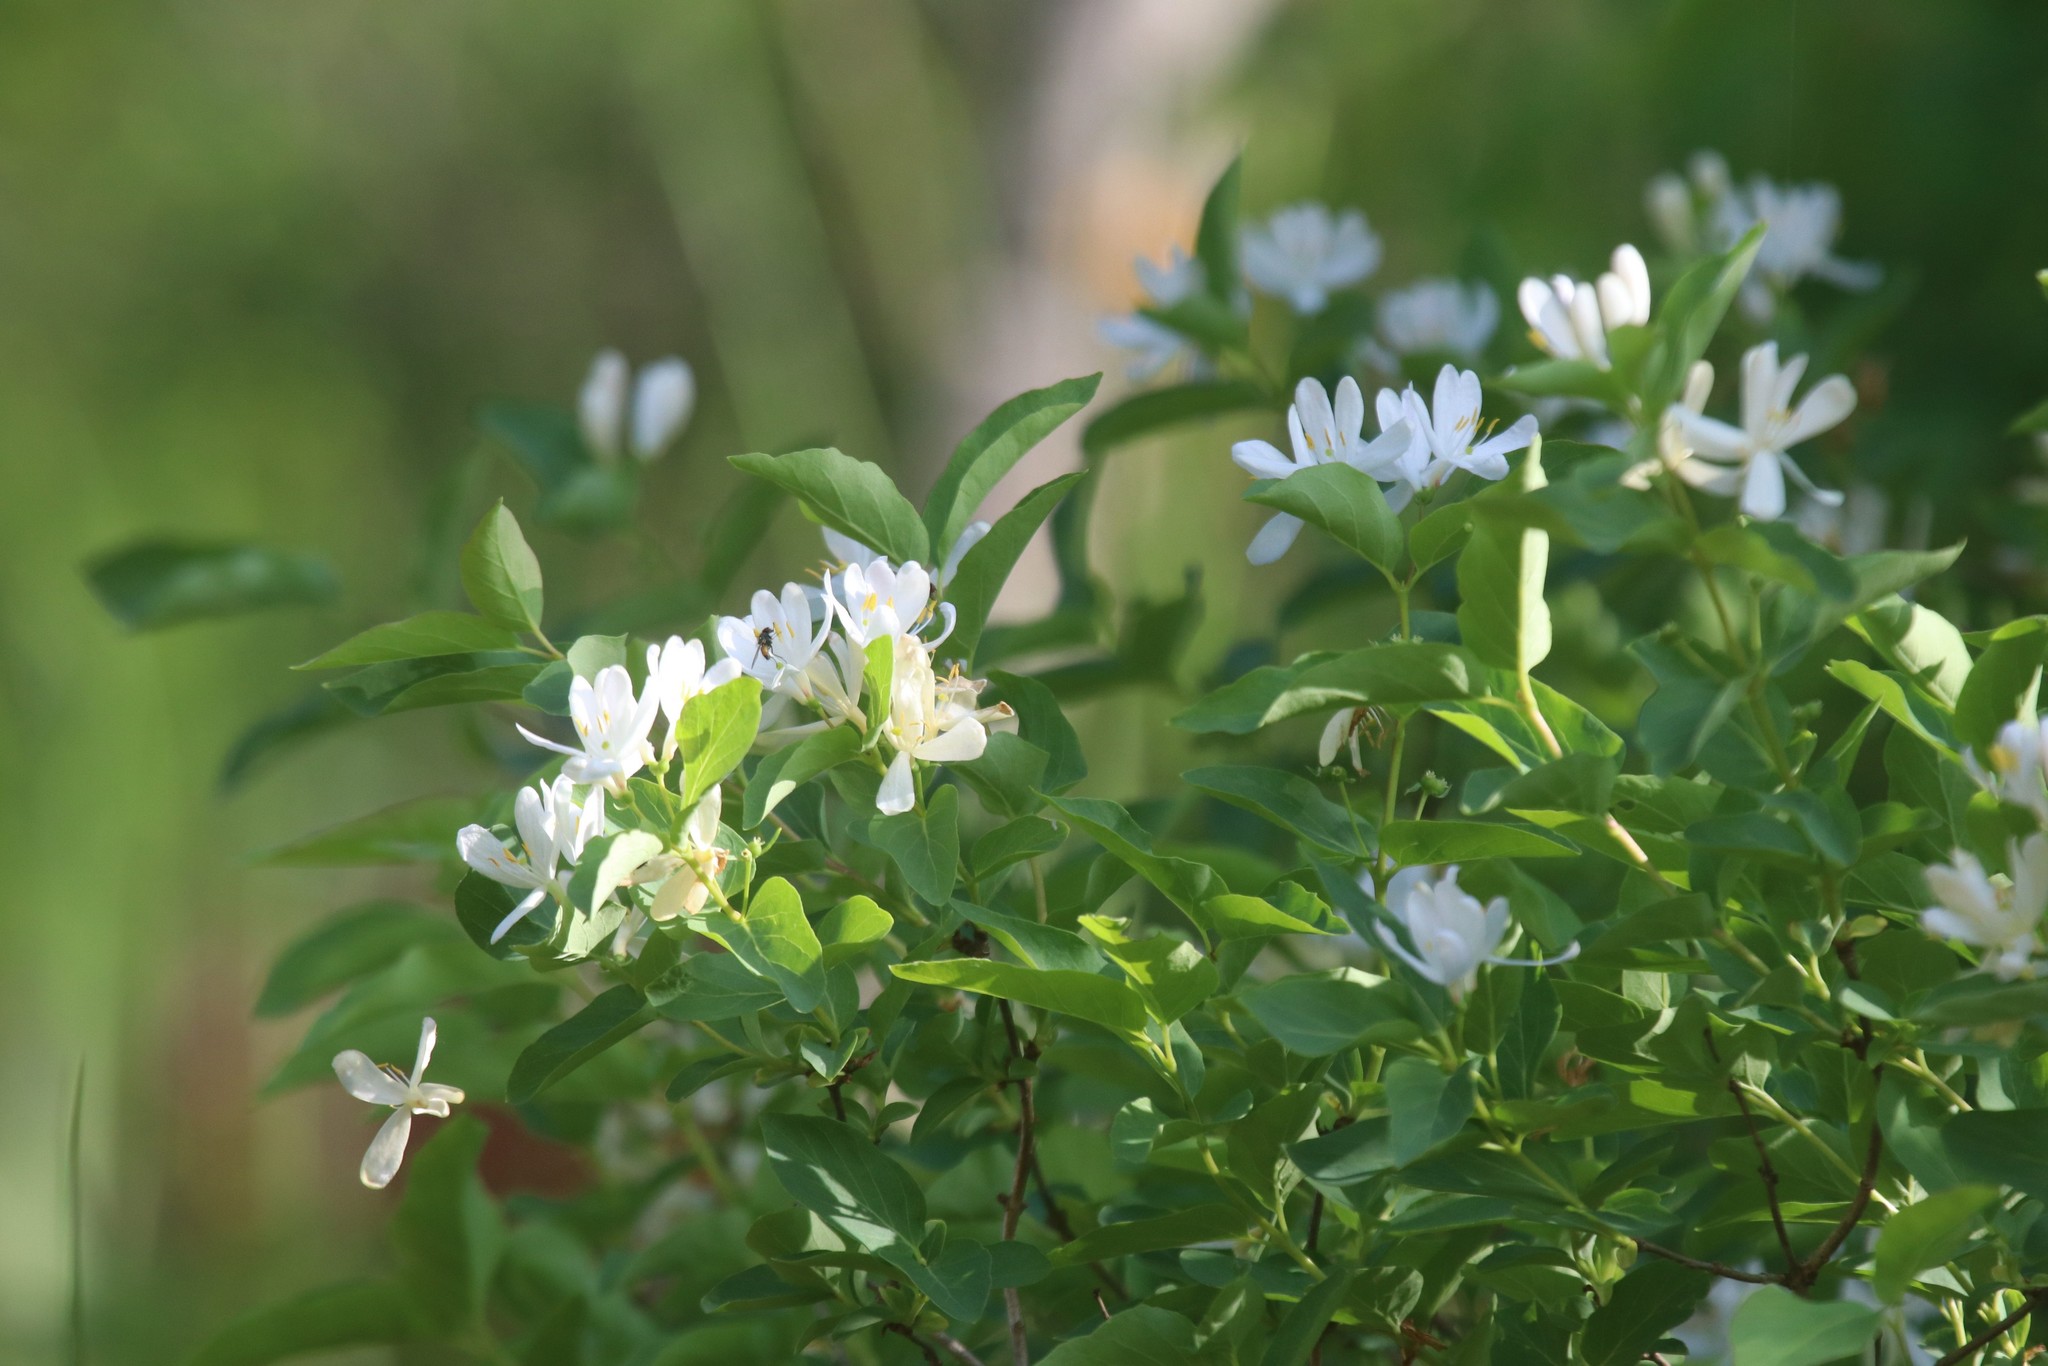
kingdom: Plantae
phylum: Tracheophyta
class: Magnoliopsida
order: Dipsacales
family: Caprifoliaceae
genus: Lonicera
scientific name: Lonicera tatarica
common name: Tatarian honeysuckle
